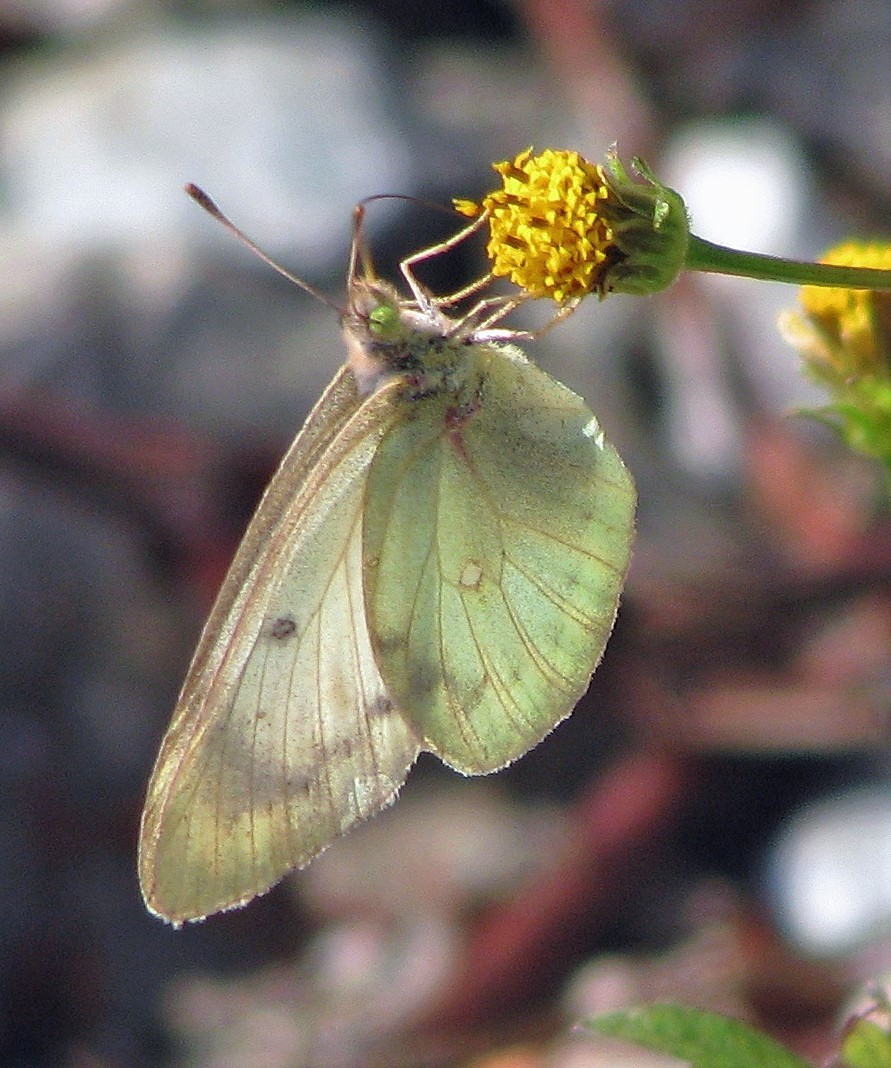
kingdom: Animalia
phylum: Arthropoda
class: Insecta
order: Lepidoptera
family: Pieridae
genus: Colias
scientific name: Colias lesbia
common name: Lesbia clouded yellow
